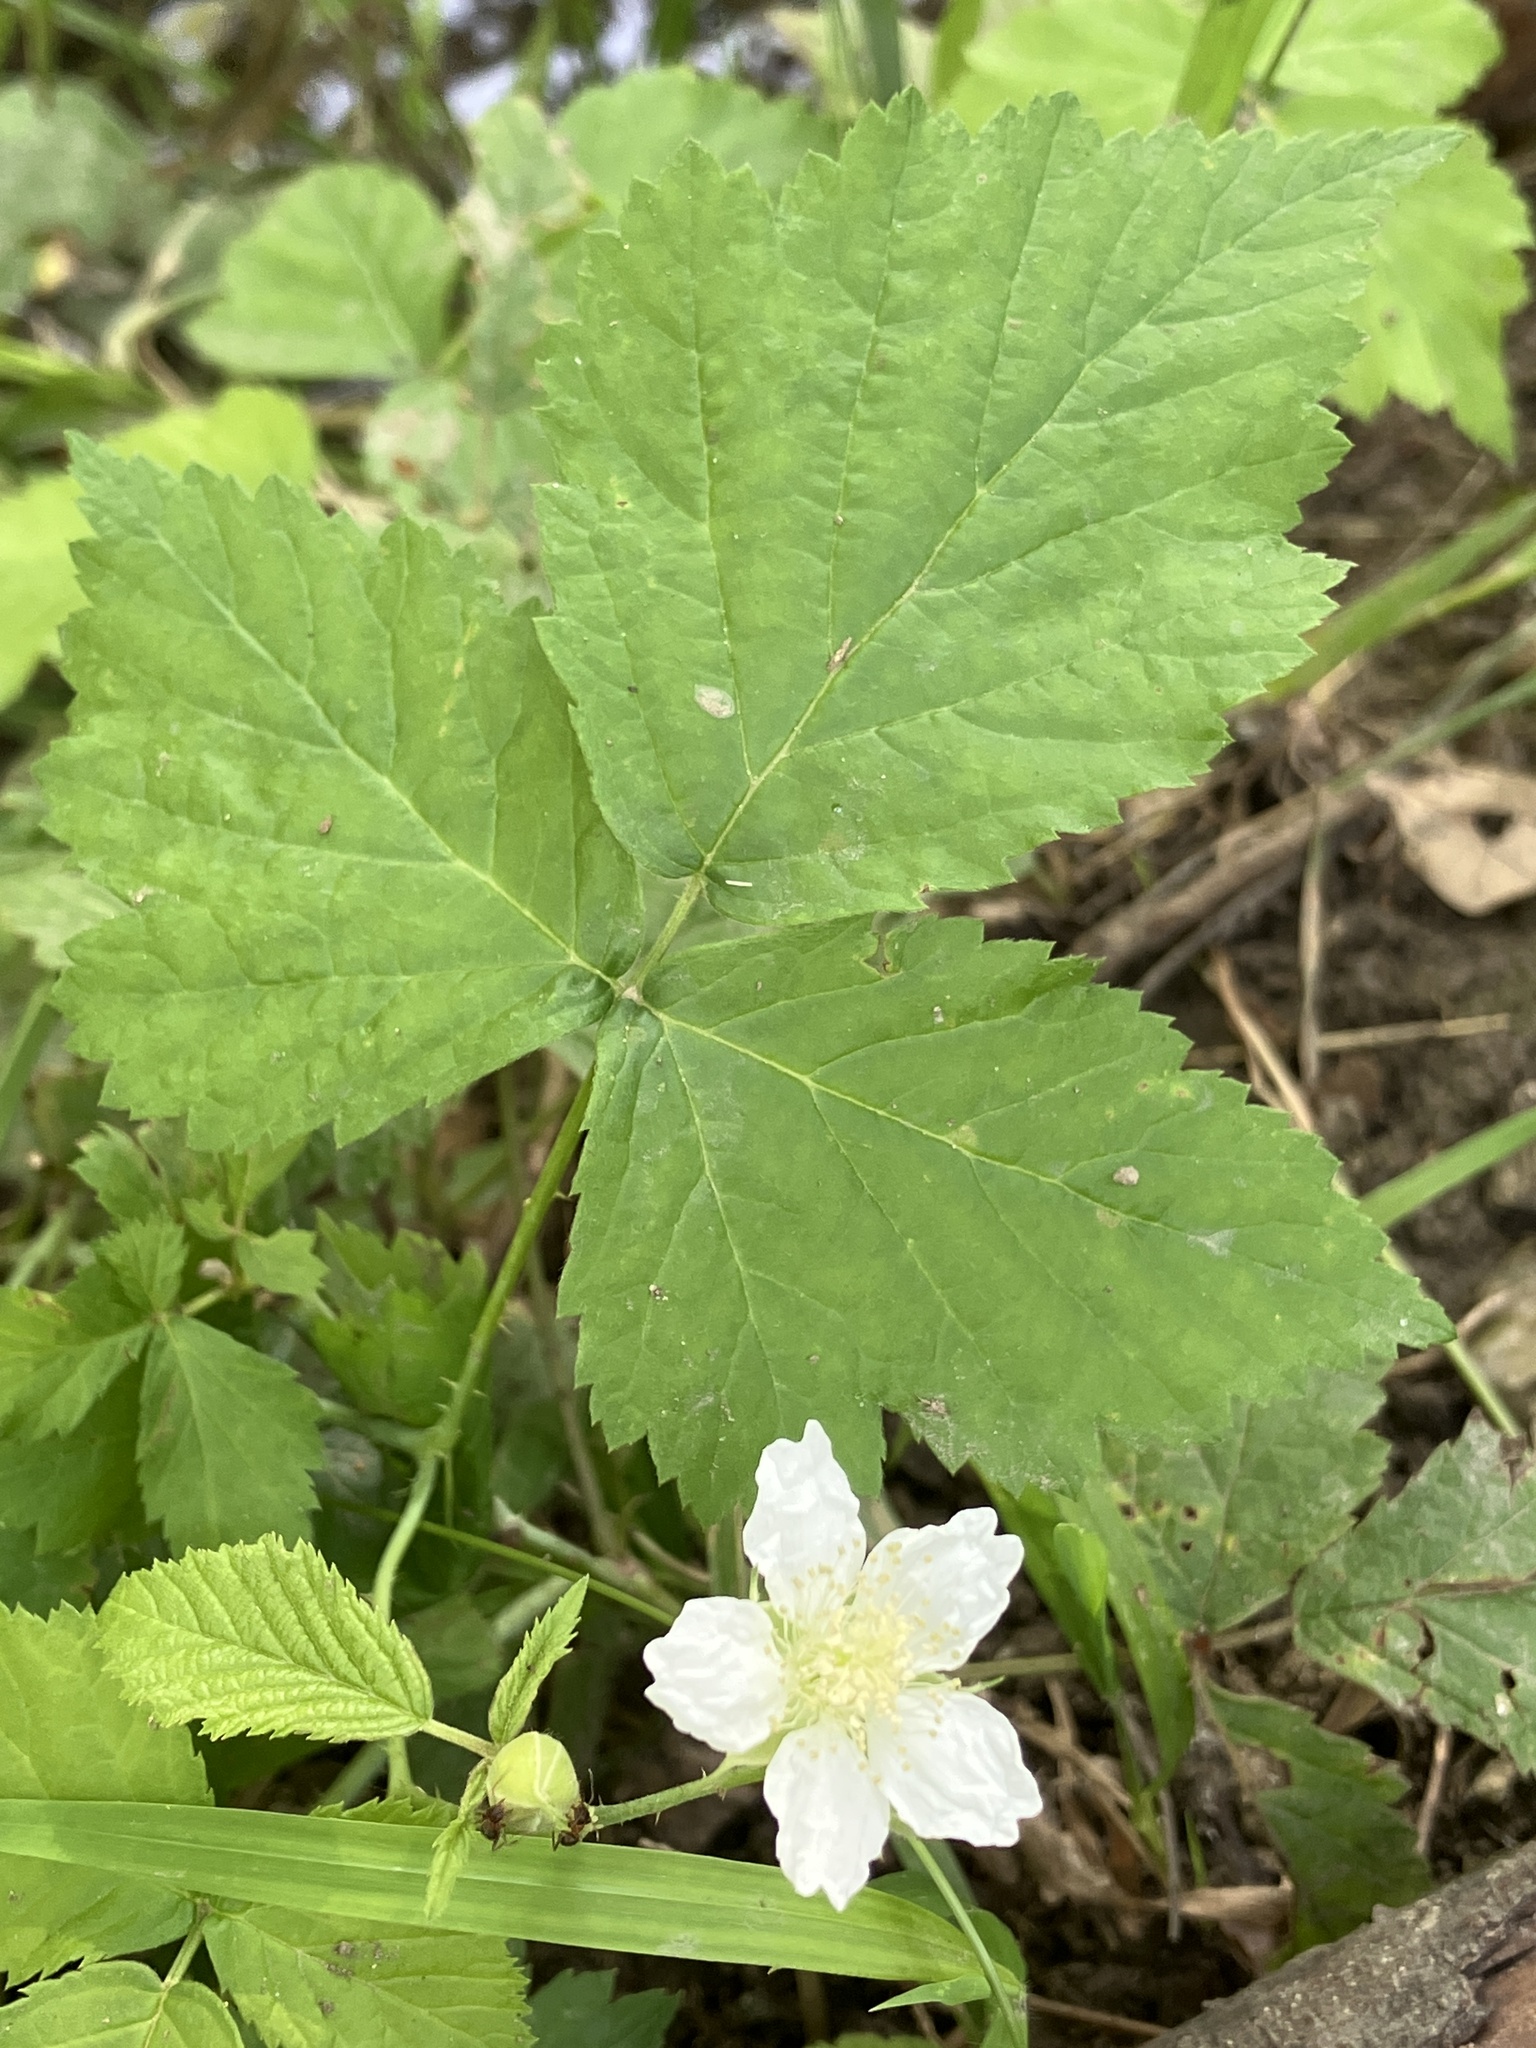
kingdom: Plantae
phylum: Tracheophyta
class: Magnoliopsida
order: Rosales
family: Rosaceae
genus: Rubus
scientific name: Rubus caesius
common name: Dewberry
